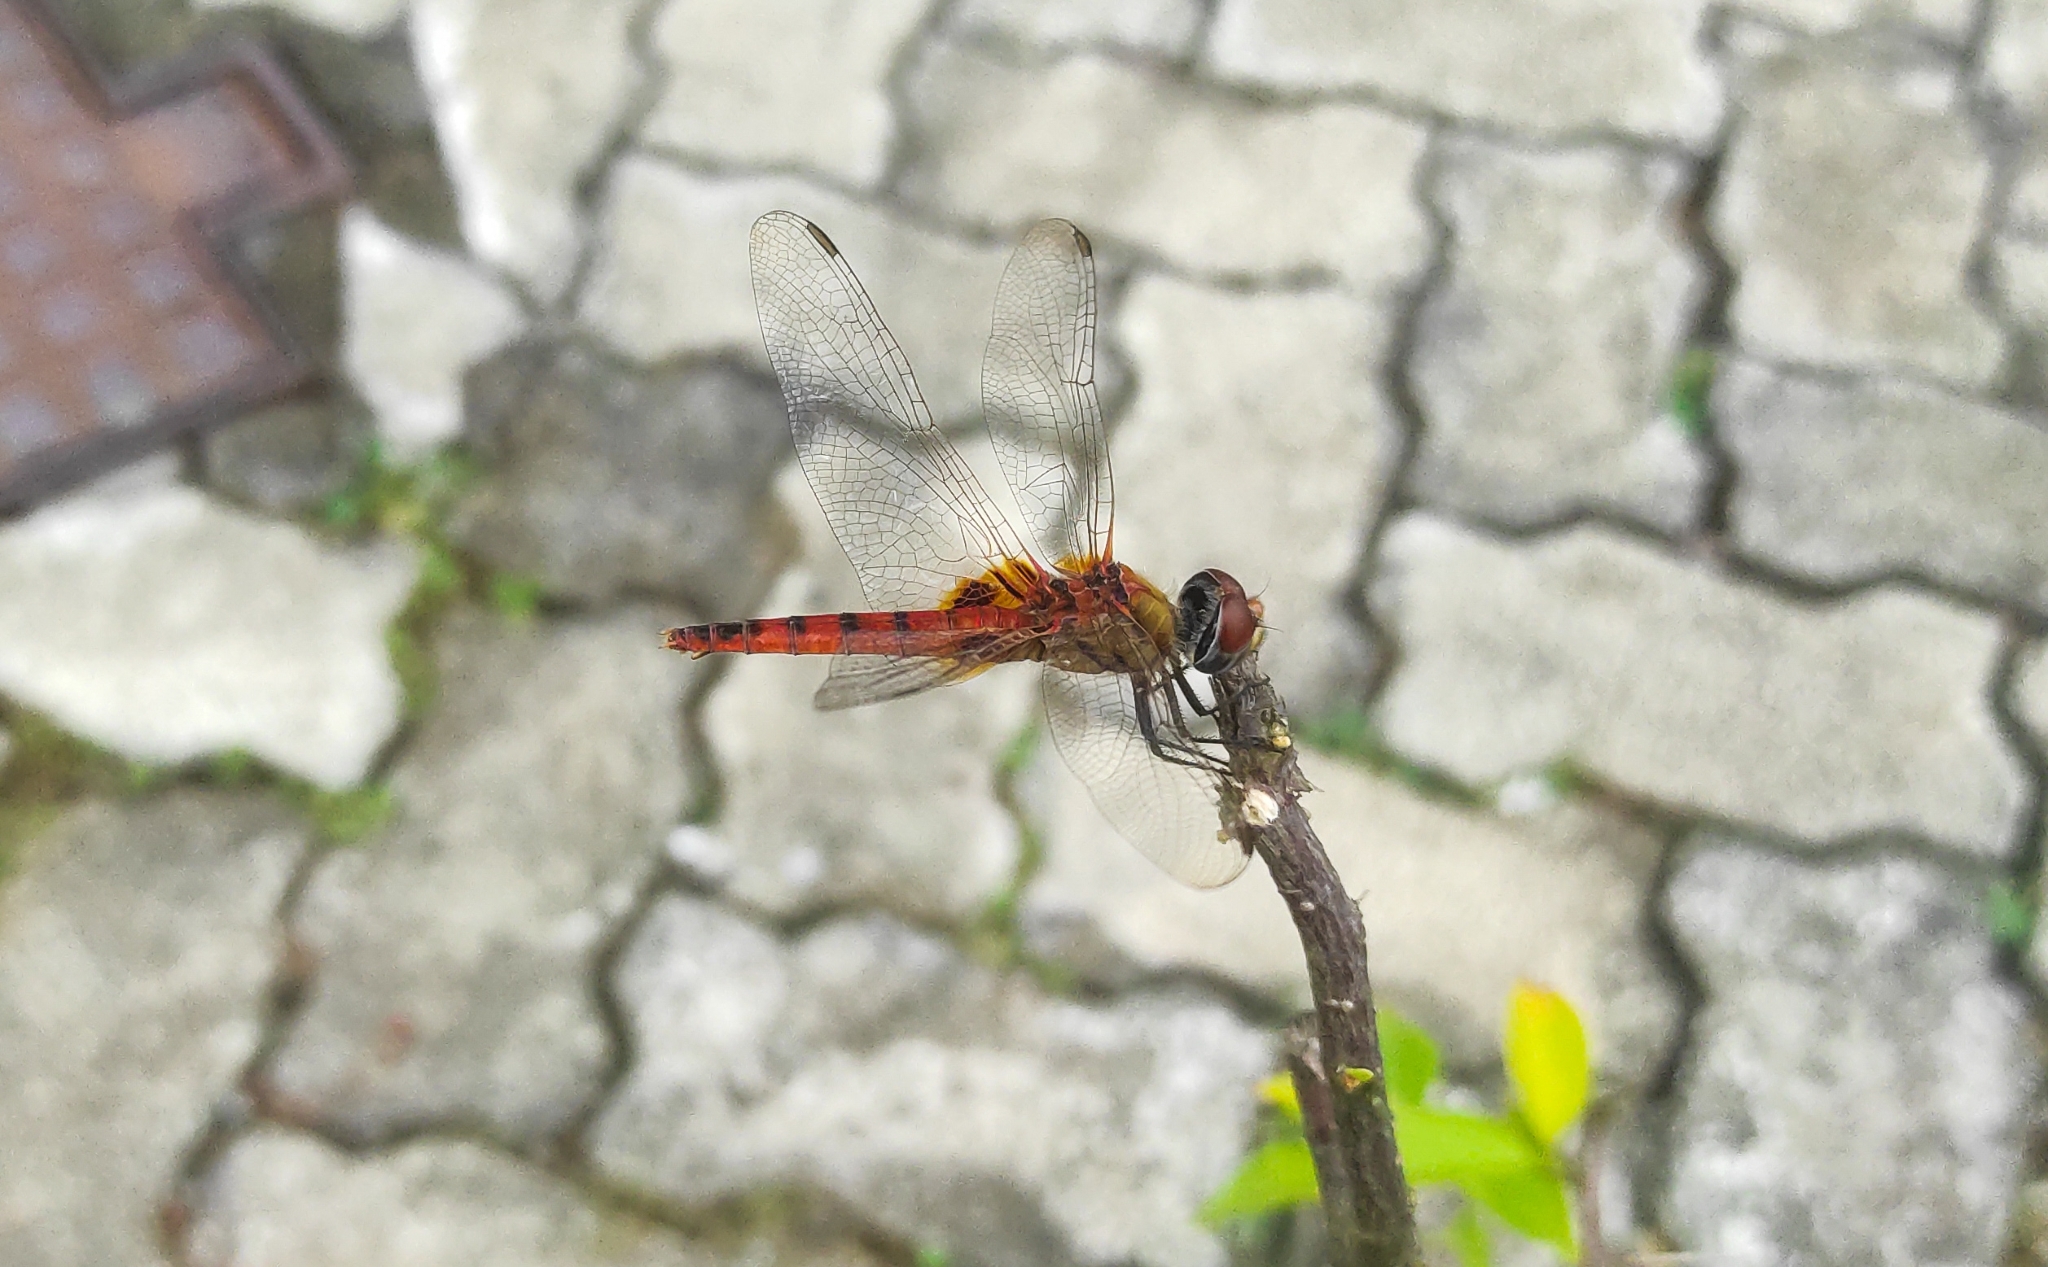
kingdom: Animalia
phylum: Arthropoda
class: Insecta
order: Odonata
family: Libellulidae
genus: Urothemis
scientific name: Urothemis signata
